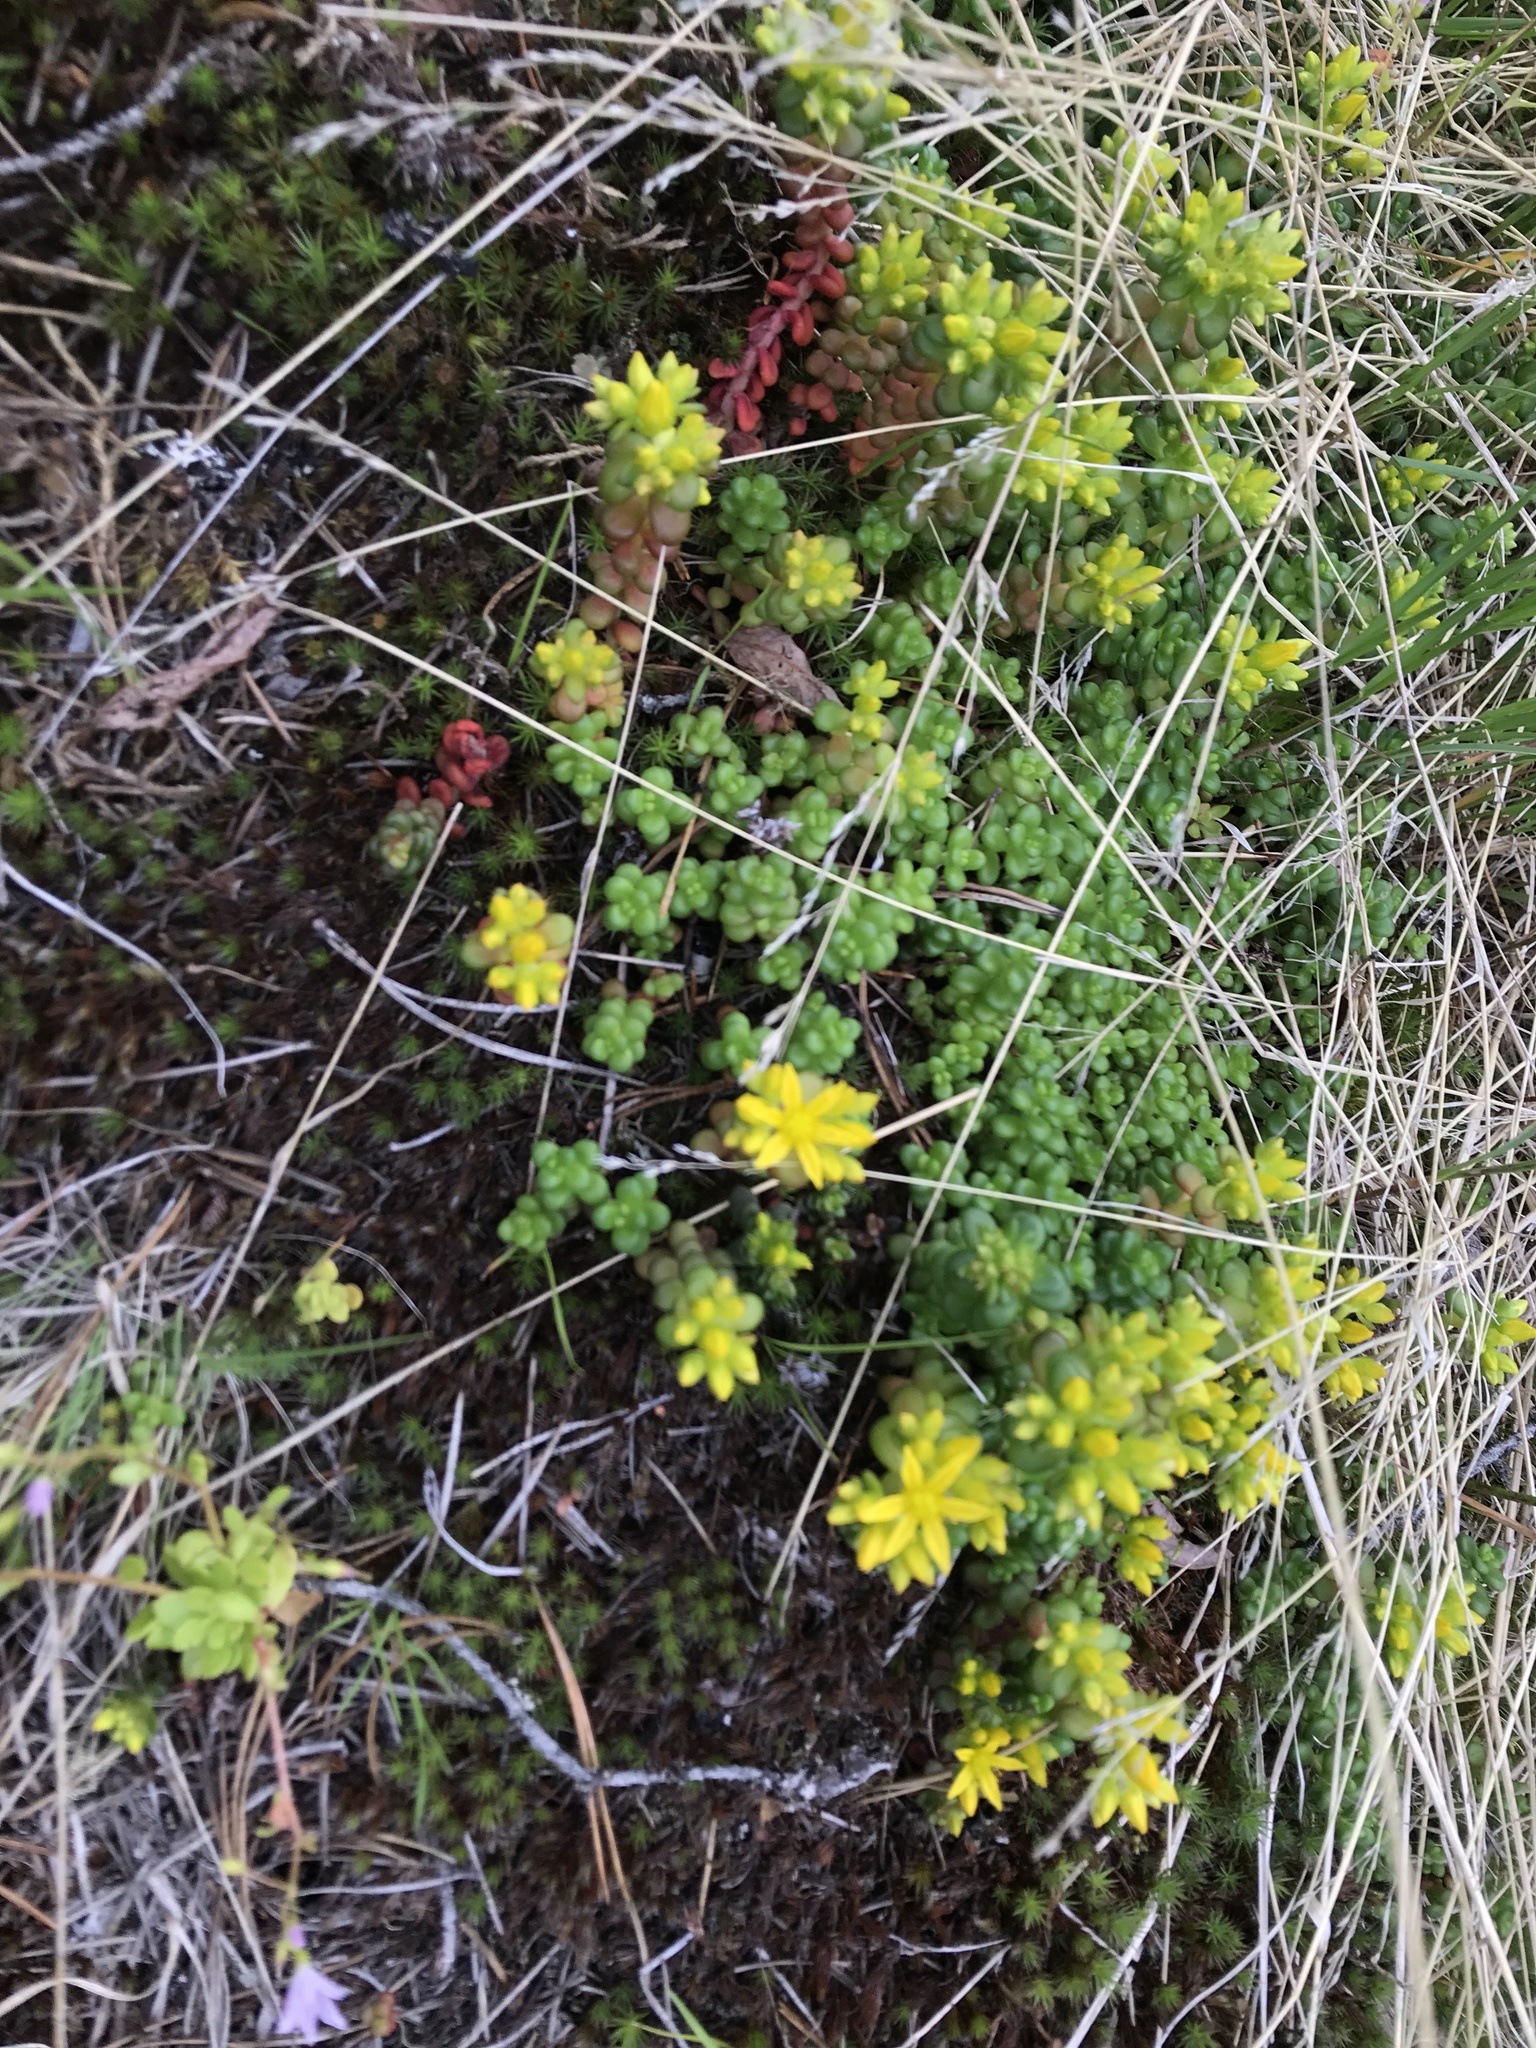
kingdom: Plantae
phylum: Tracheophyta
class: Magnoliopsida
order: Saxifragales
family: Crassulaceae
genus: Sedum
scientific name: Sedum divergens
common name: Cascade stonecrop
